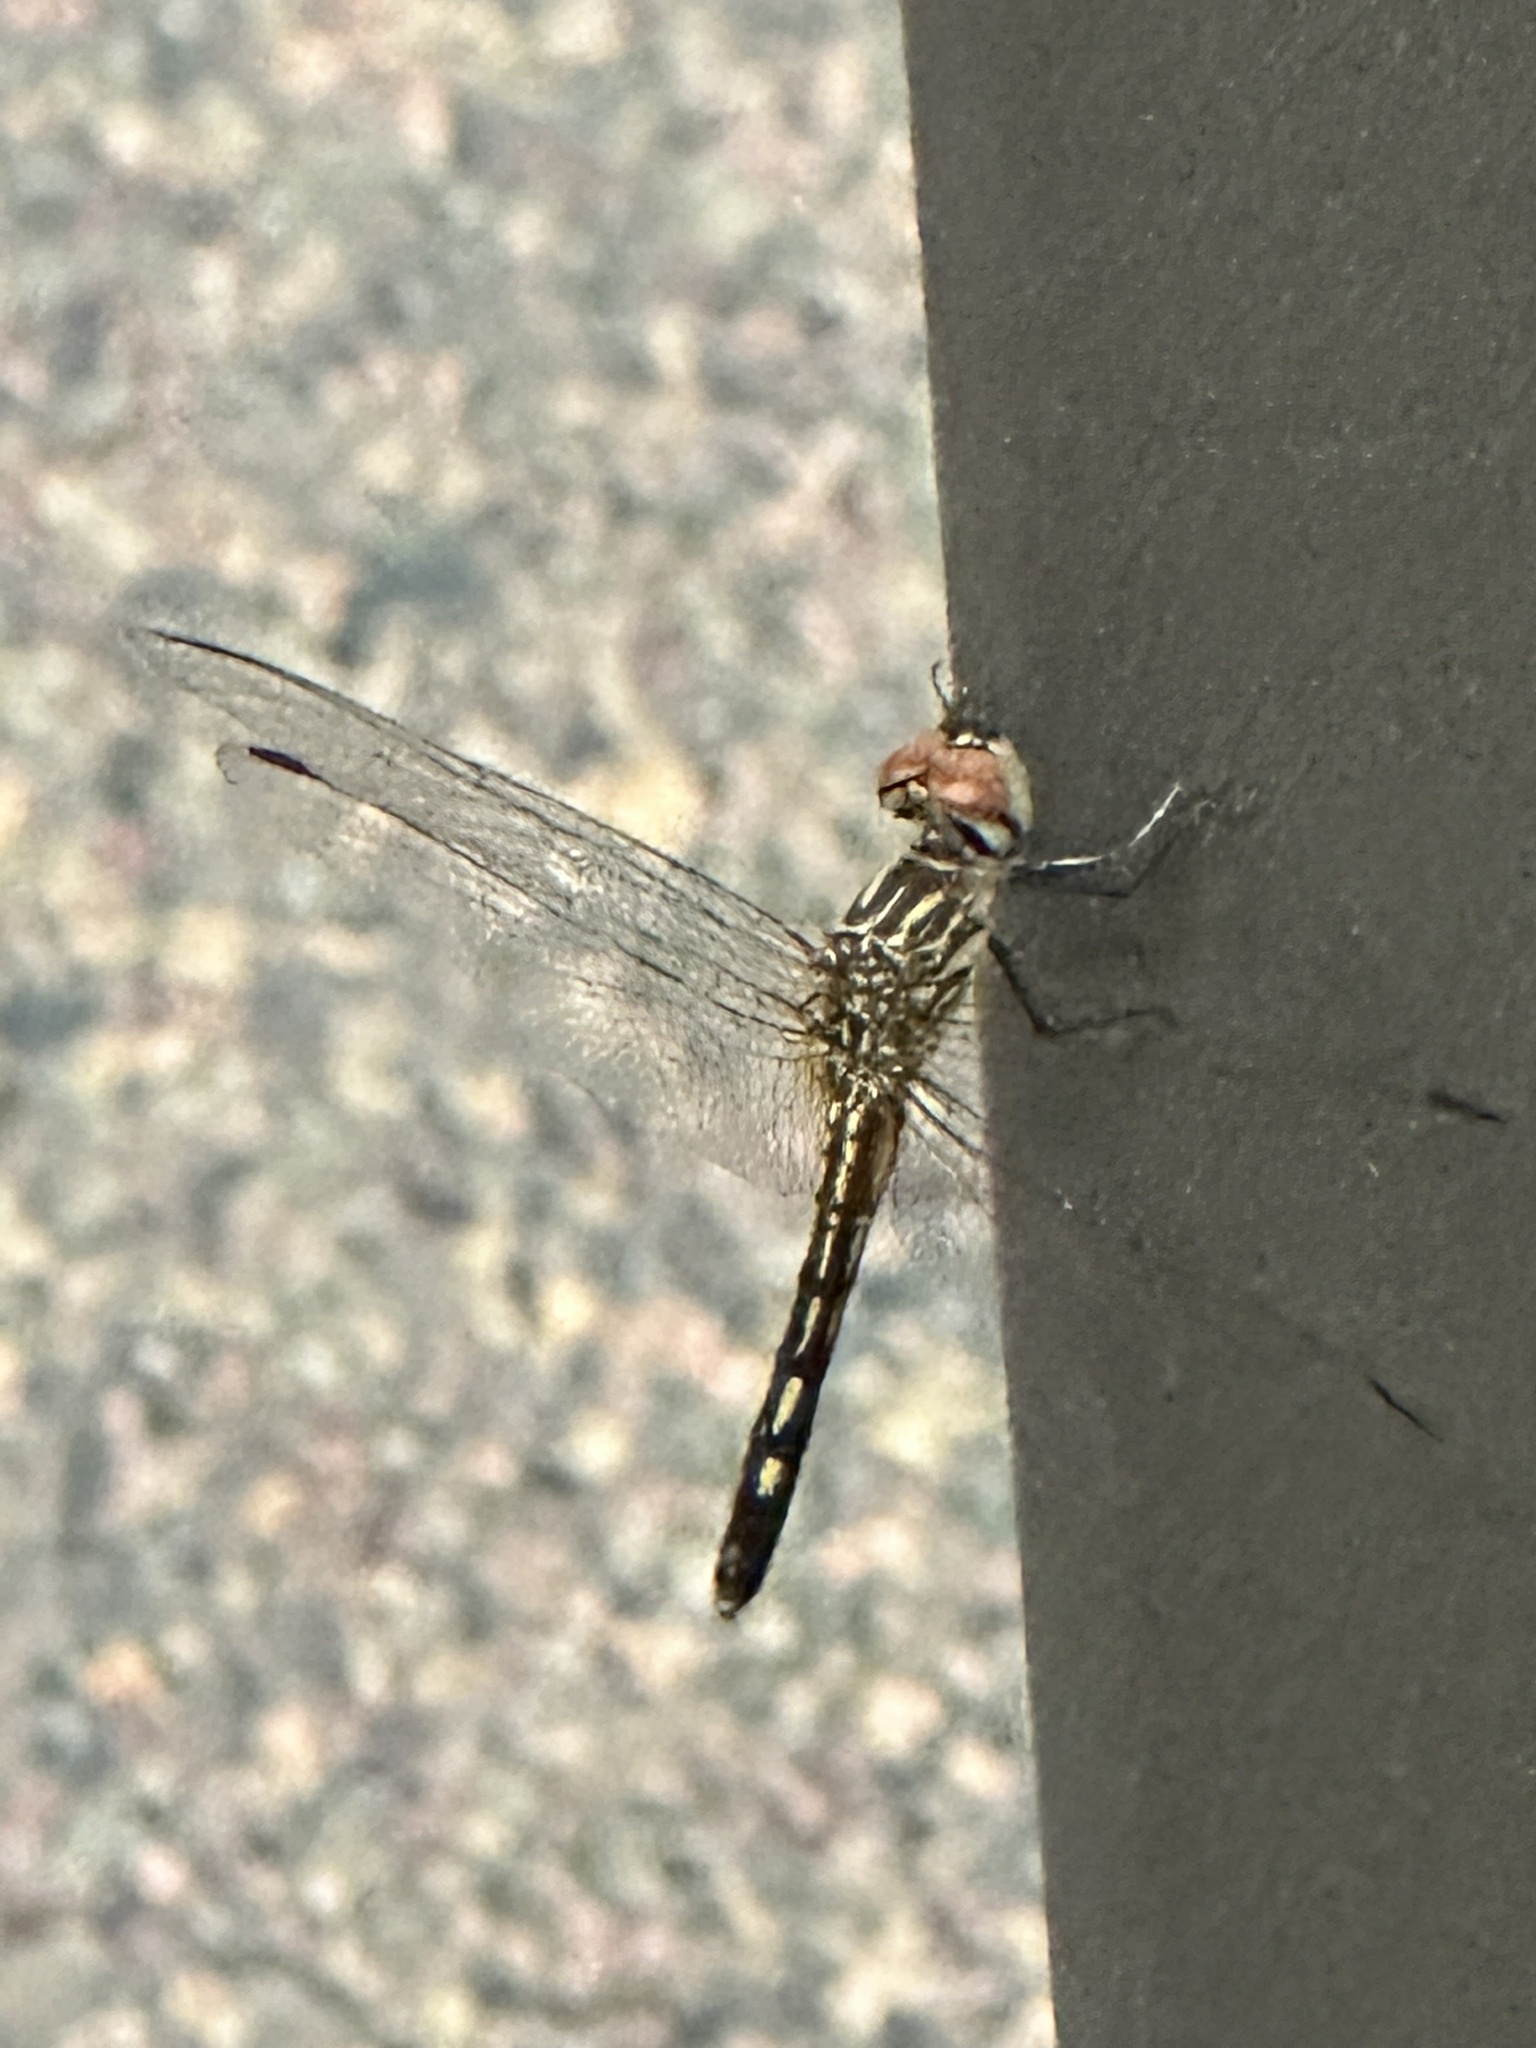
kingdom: Animalia
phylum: Arthropoda
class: Insecta
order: Odonata
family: Libellulidae
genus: Pachydiplax
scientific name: Pachydiplax longipennis
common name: Blue dasher
